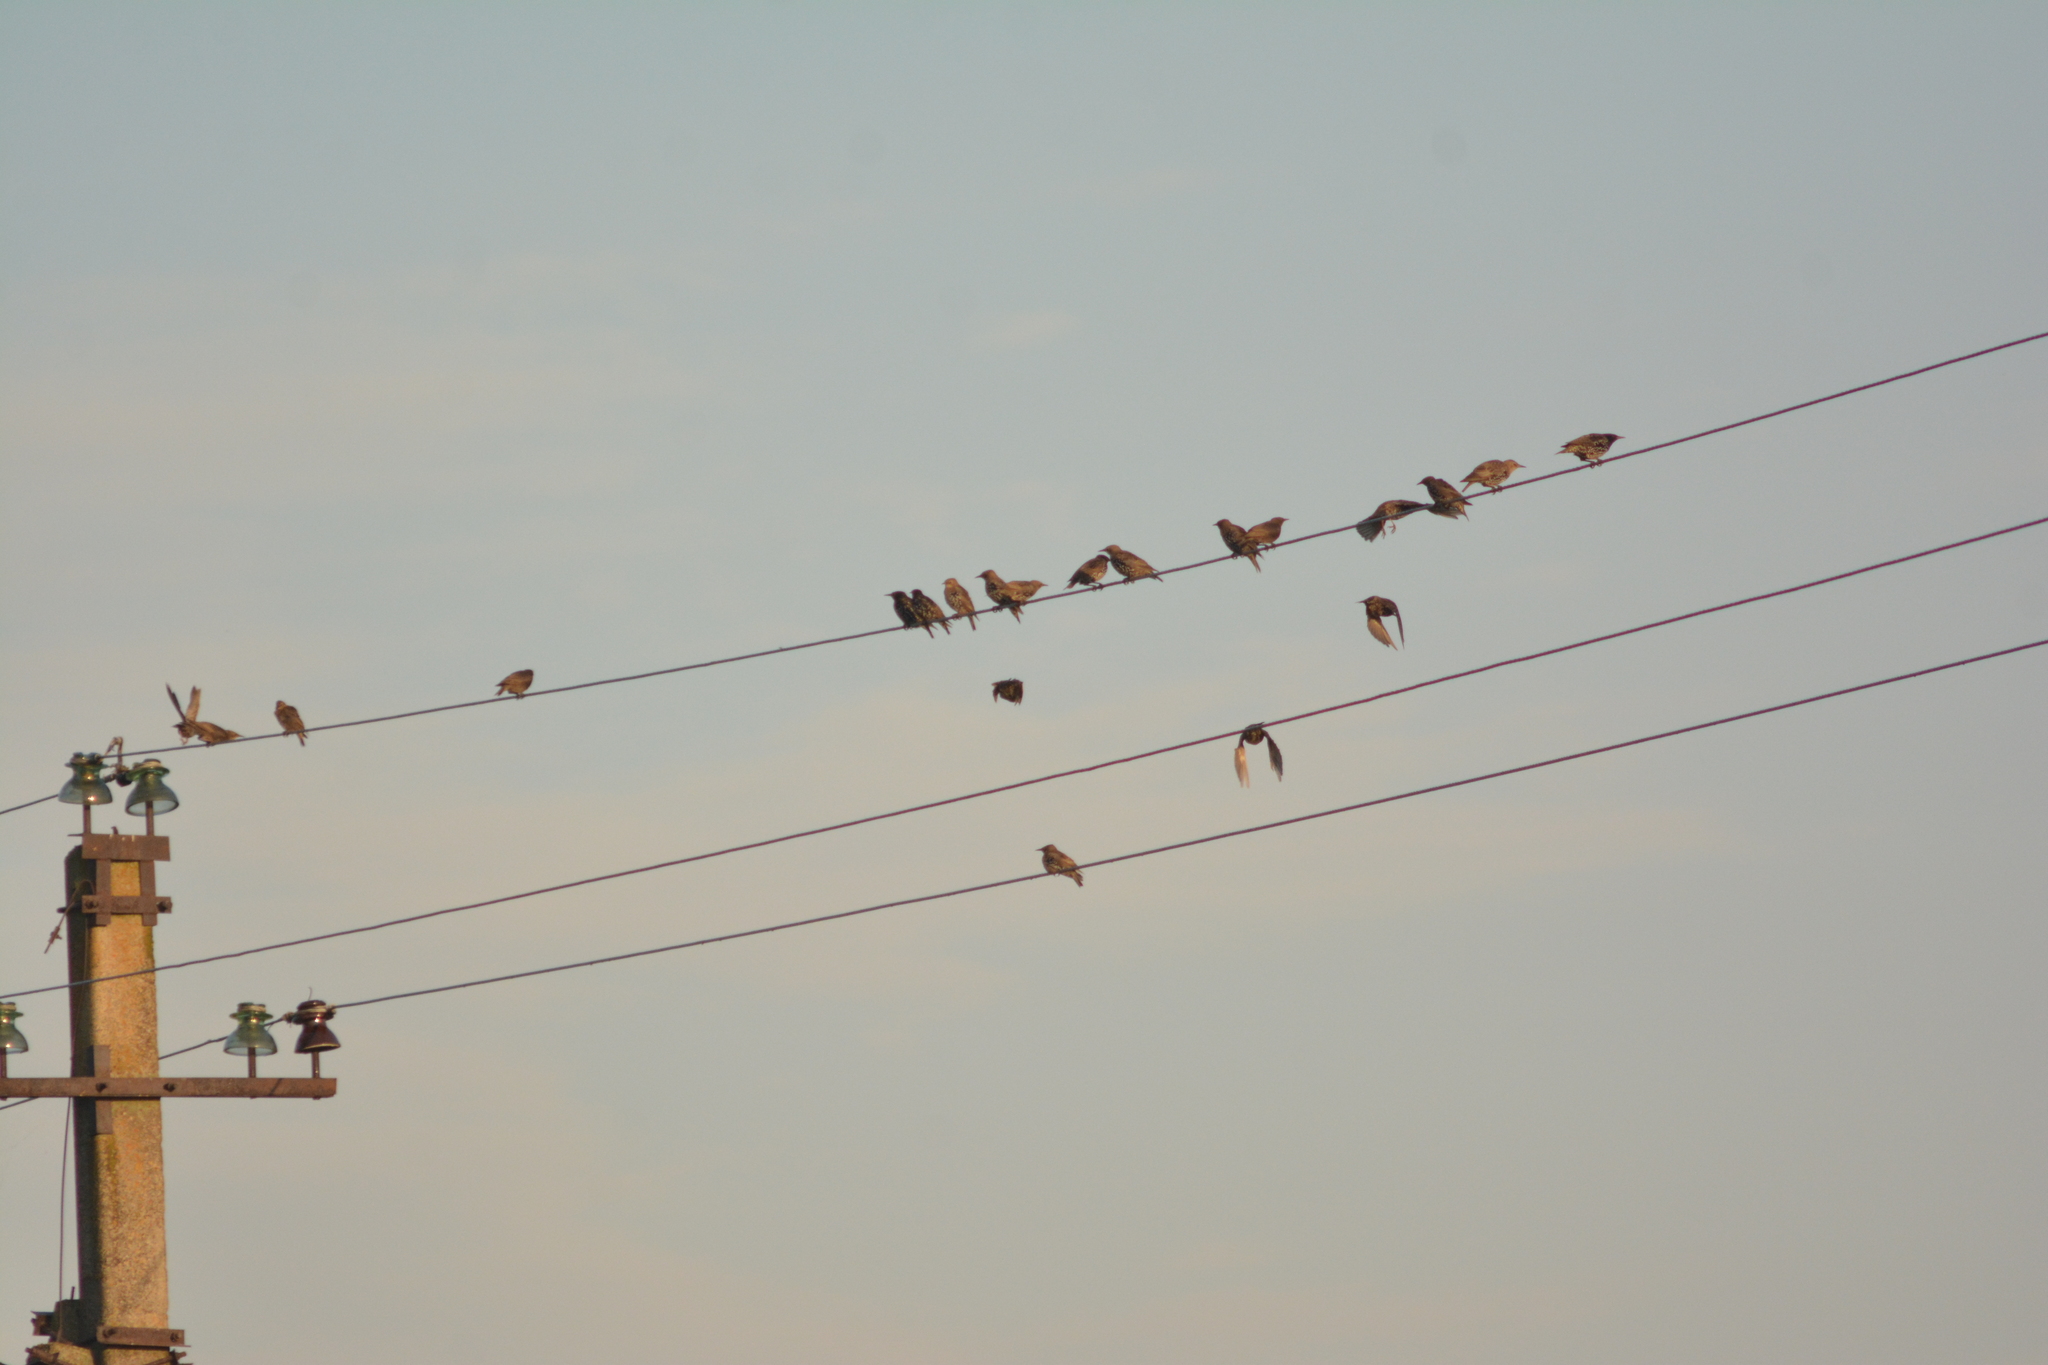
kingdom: Animalia
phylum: Chordata
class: Aves
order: Passeriformes
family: Sturnidae
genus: Sturnus
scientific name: Sturnus vulgaris
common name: Common starling
